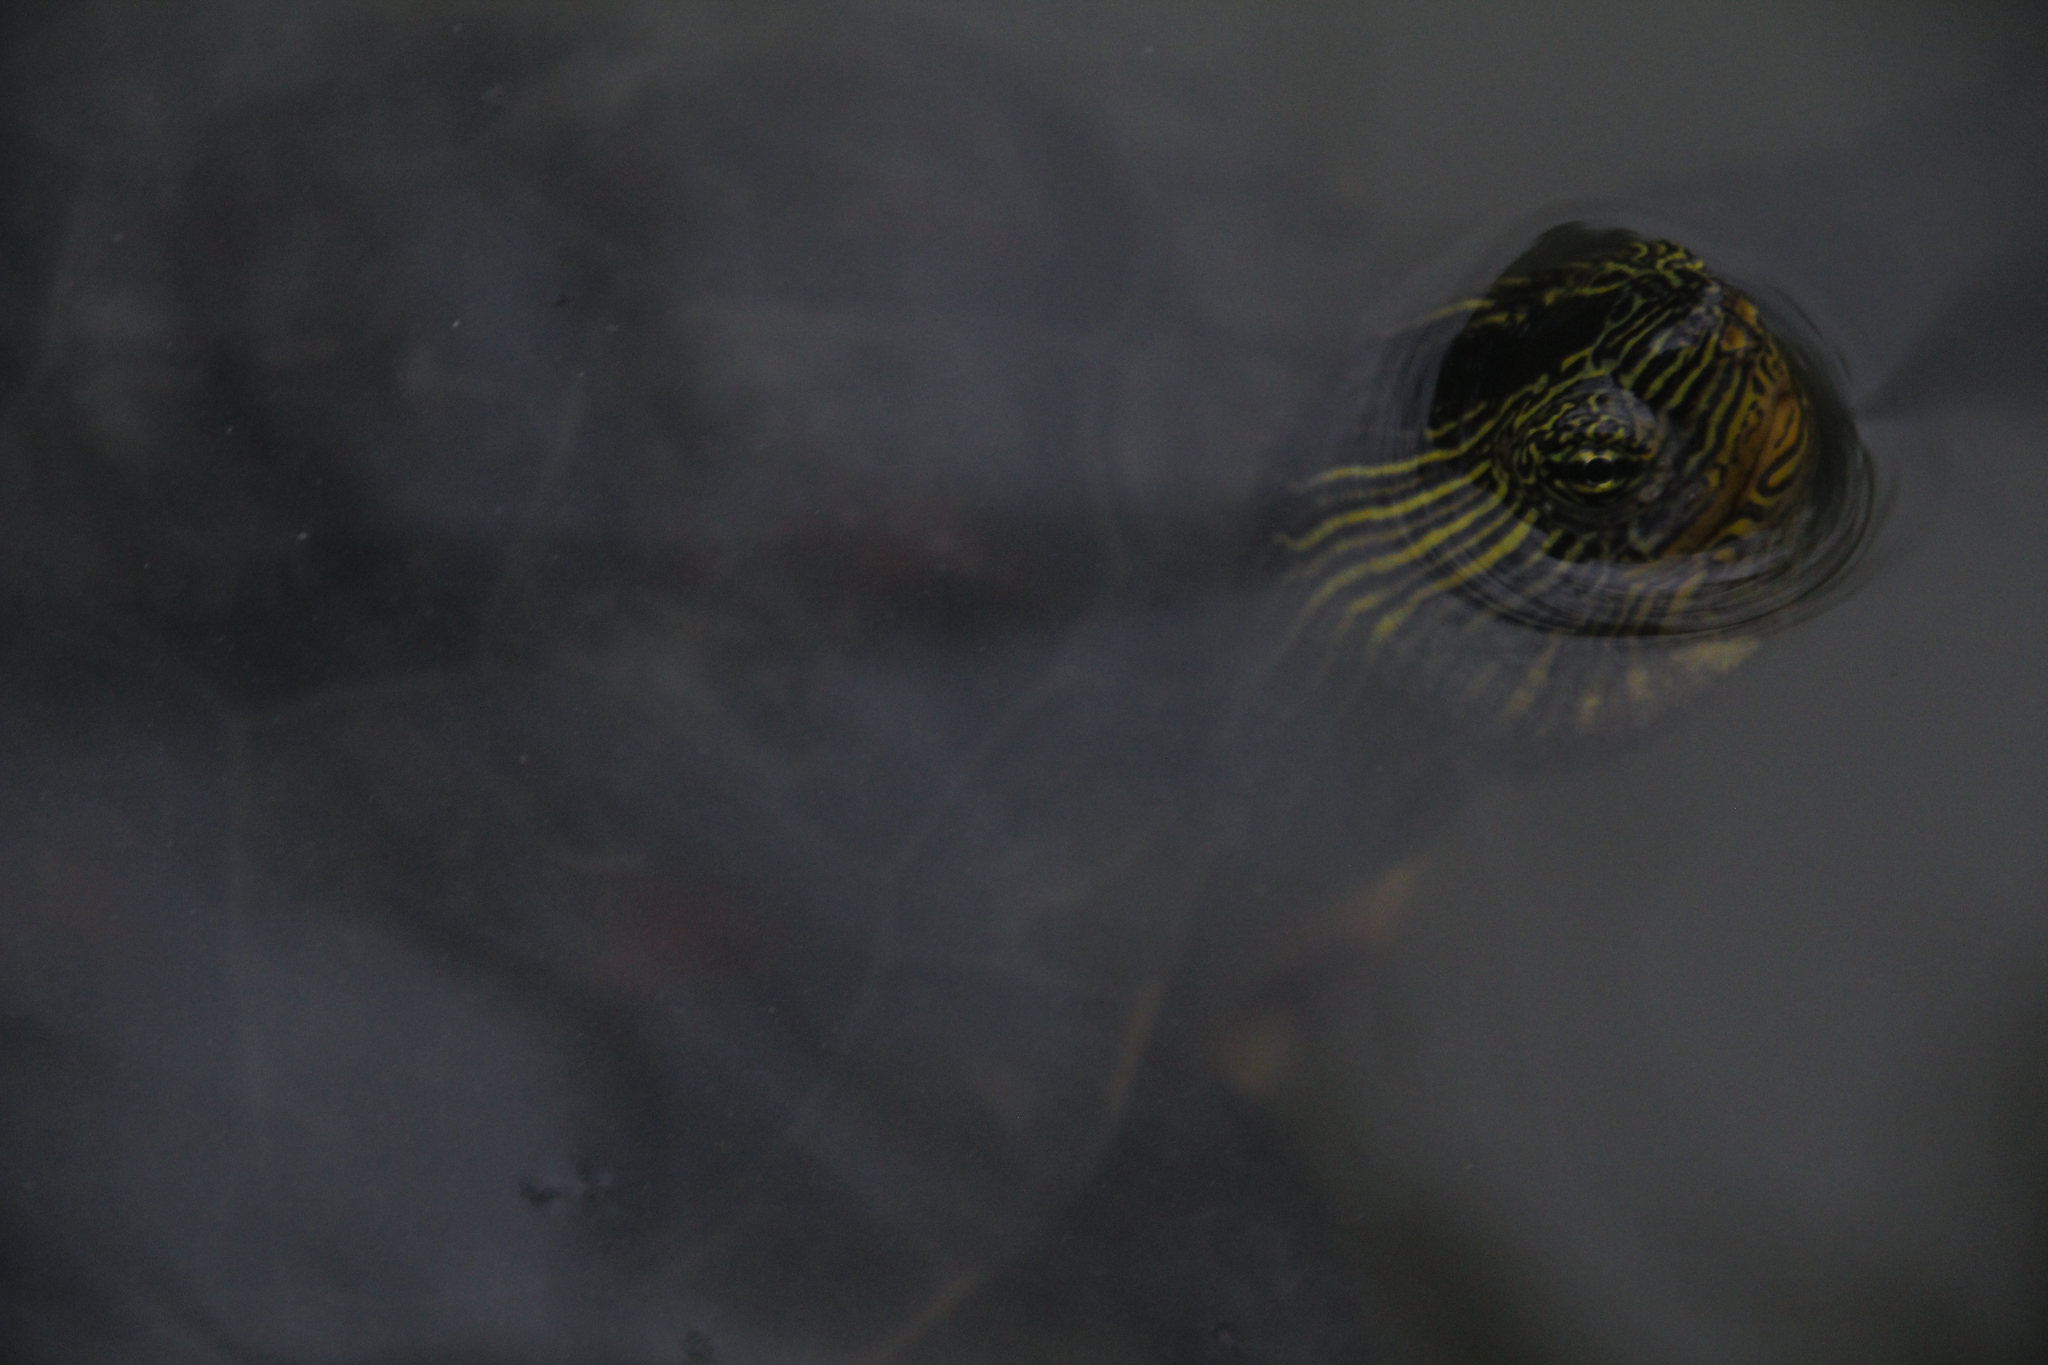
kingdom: Animalia
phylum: Chordata
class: Testudines
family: Geoemydidae
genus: Mauremys
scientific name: Mauremys sinensis
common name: Chinese stripe-necked turtle
